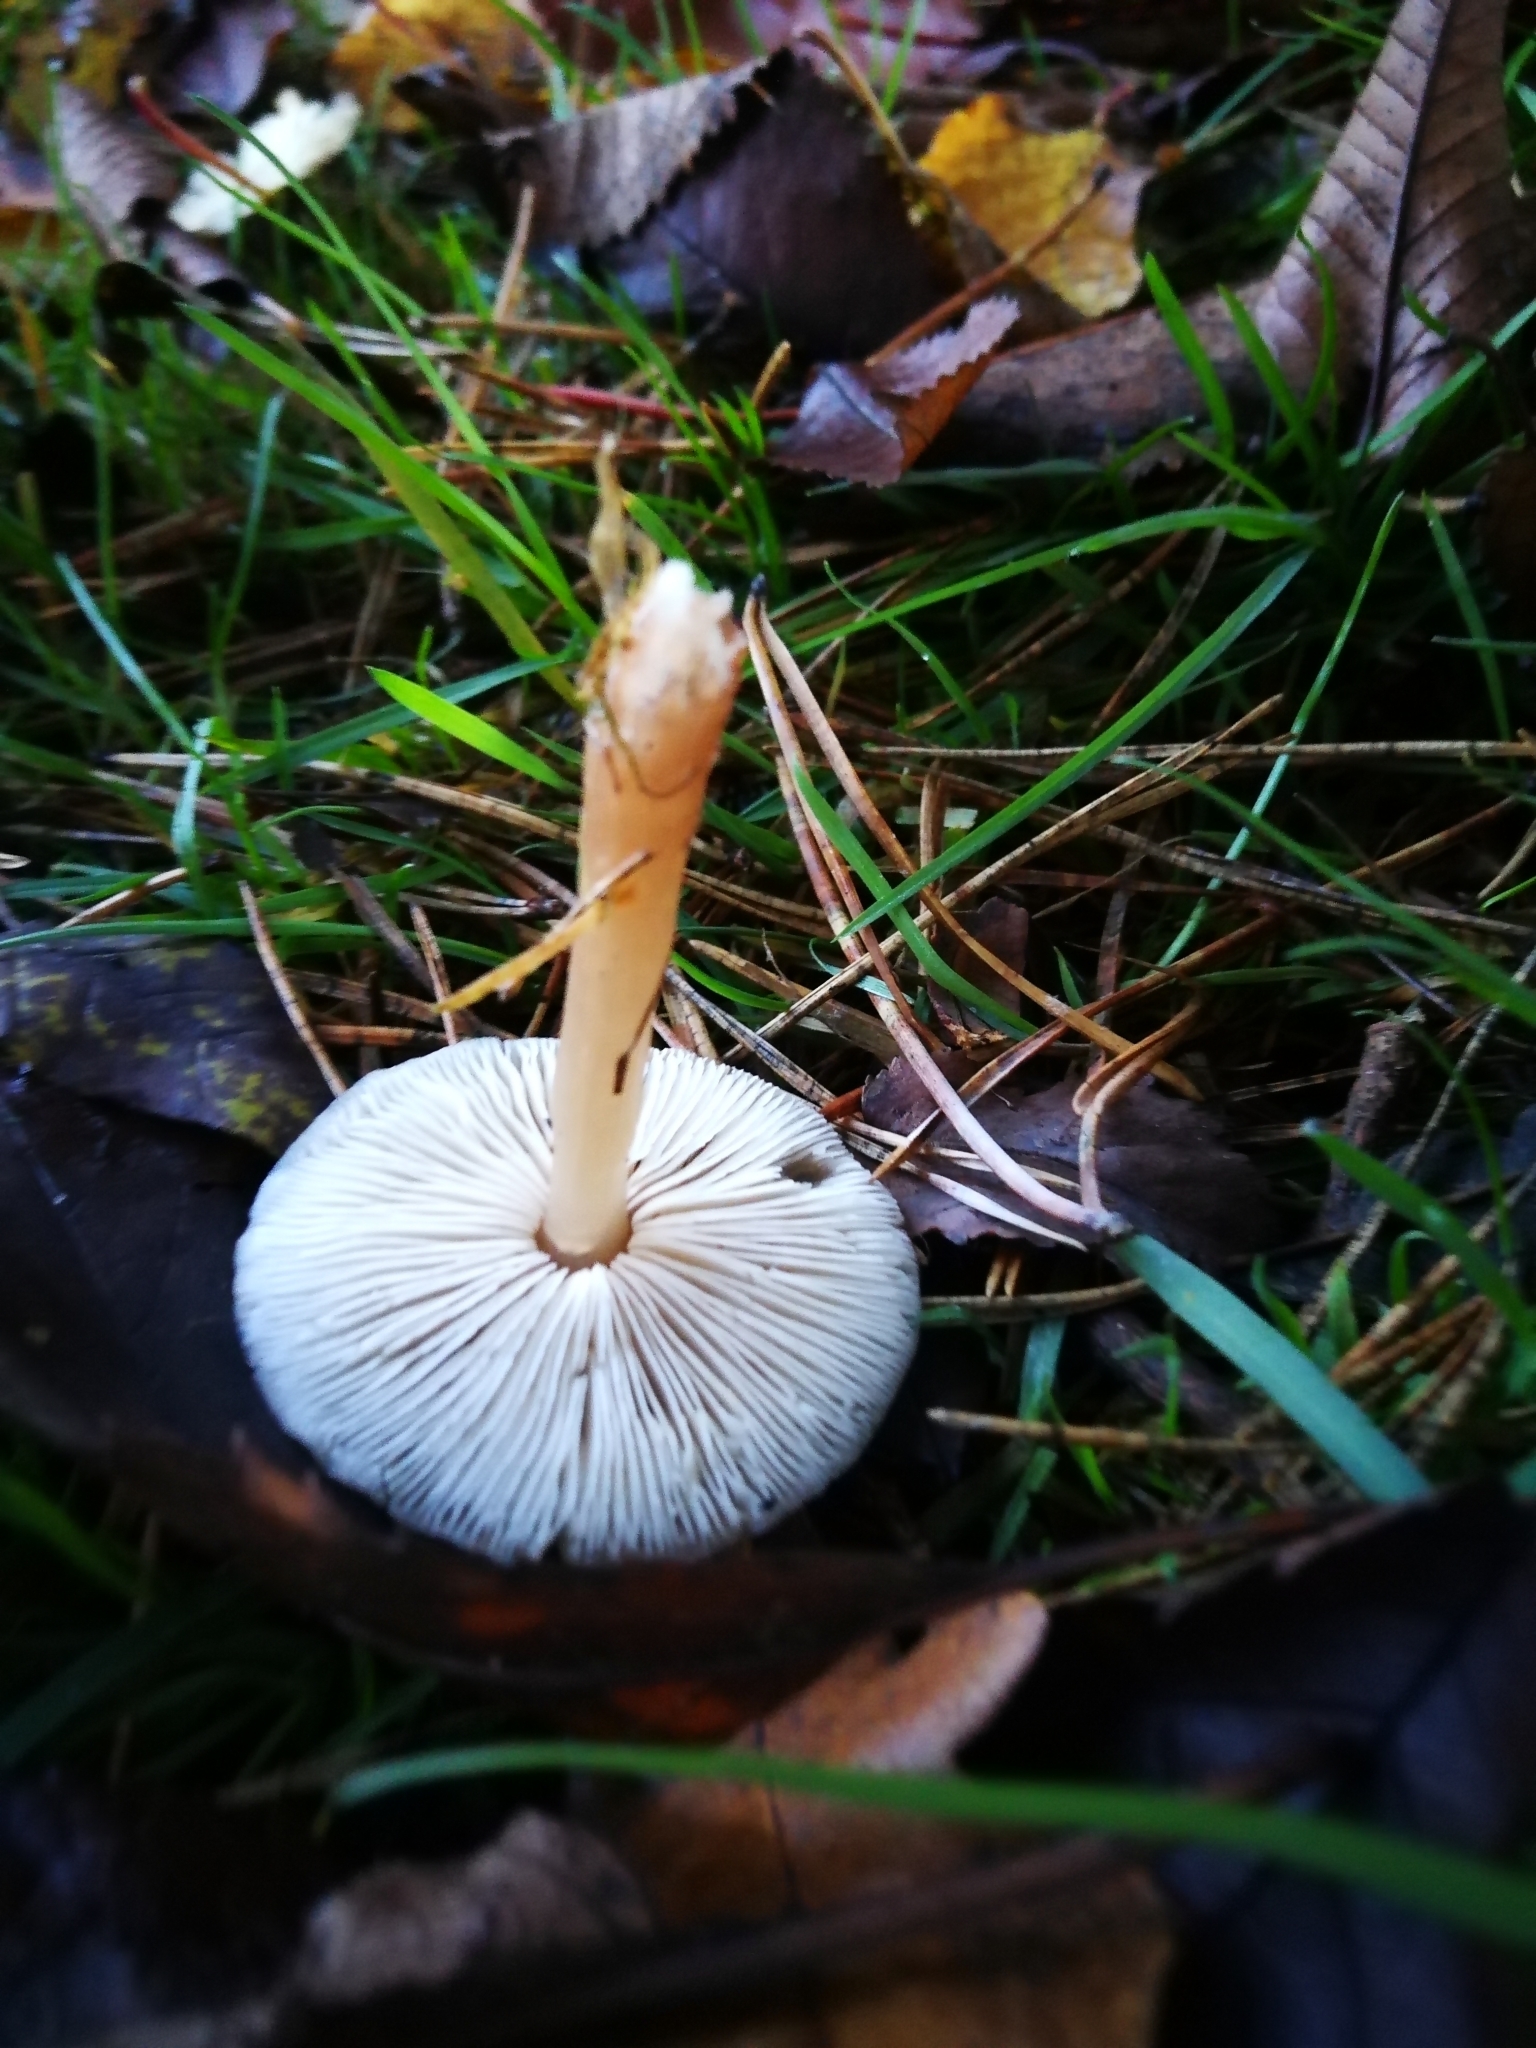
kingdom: Fungi
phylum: Basidiomycota
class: Agaricomycetes
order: Agaricales
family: Omphalotaceae
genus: Rhodocollybia
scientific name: Rhodocollybia butyracea
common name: Butter cap
